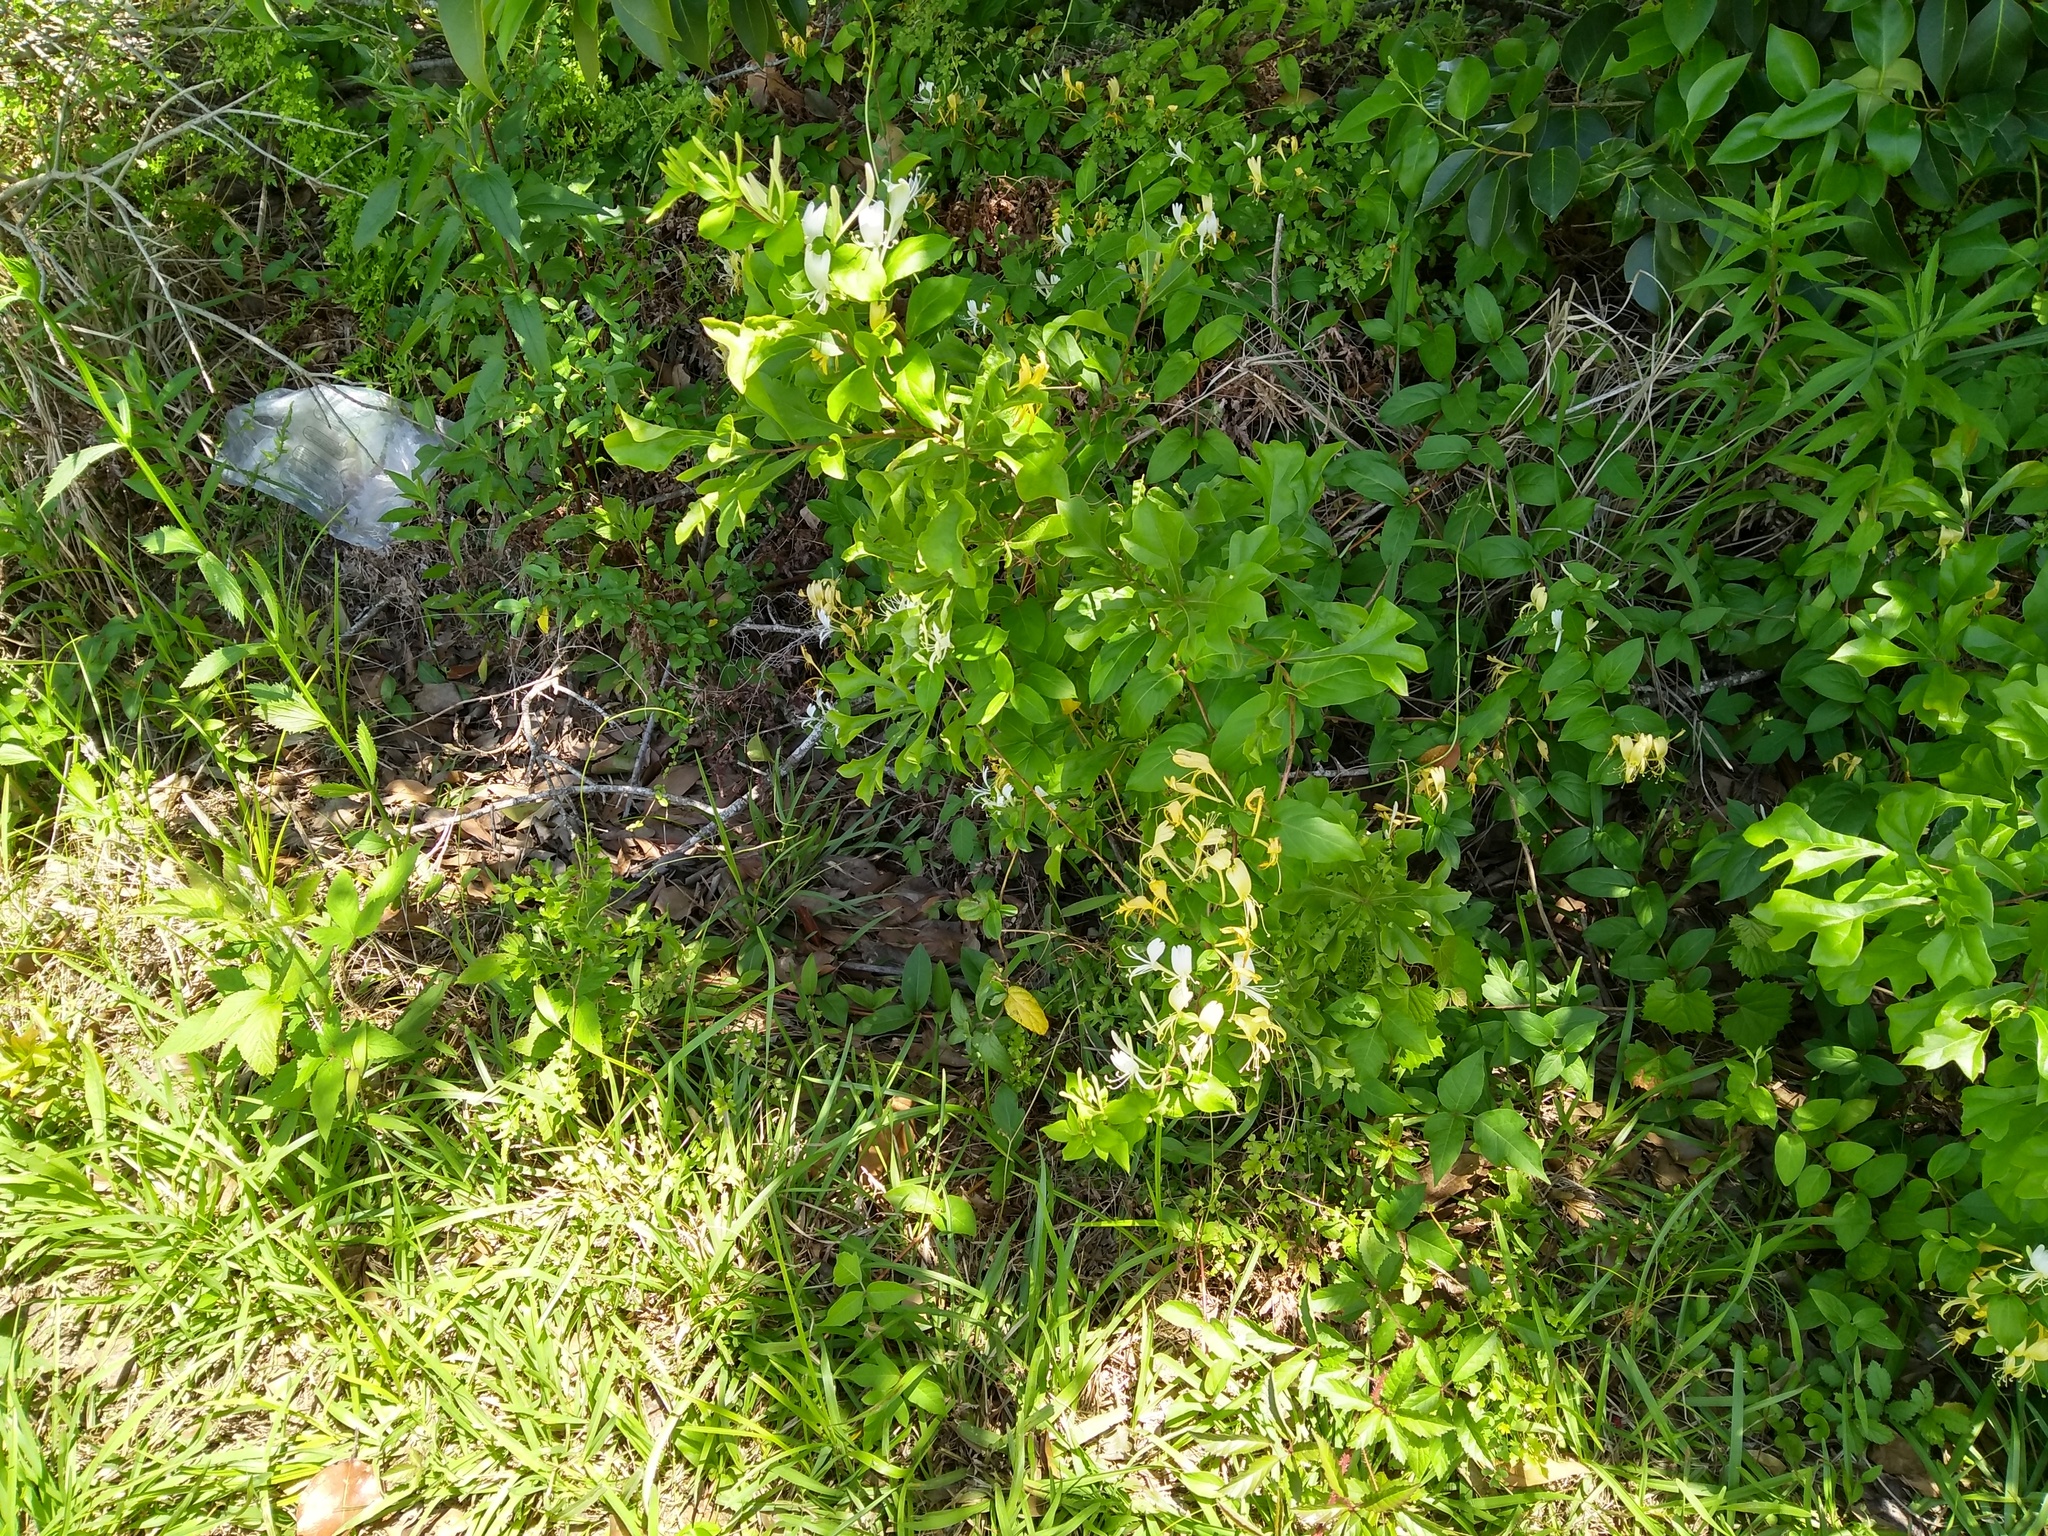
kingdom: Plantae
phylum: Tracheophyta
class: Magnoliopsida
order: Dipsacales
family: Caprifoliaceae
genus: Lonicera
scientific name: Lonicera japonica
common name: Japanese honeysuckle
